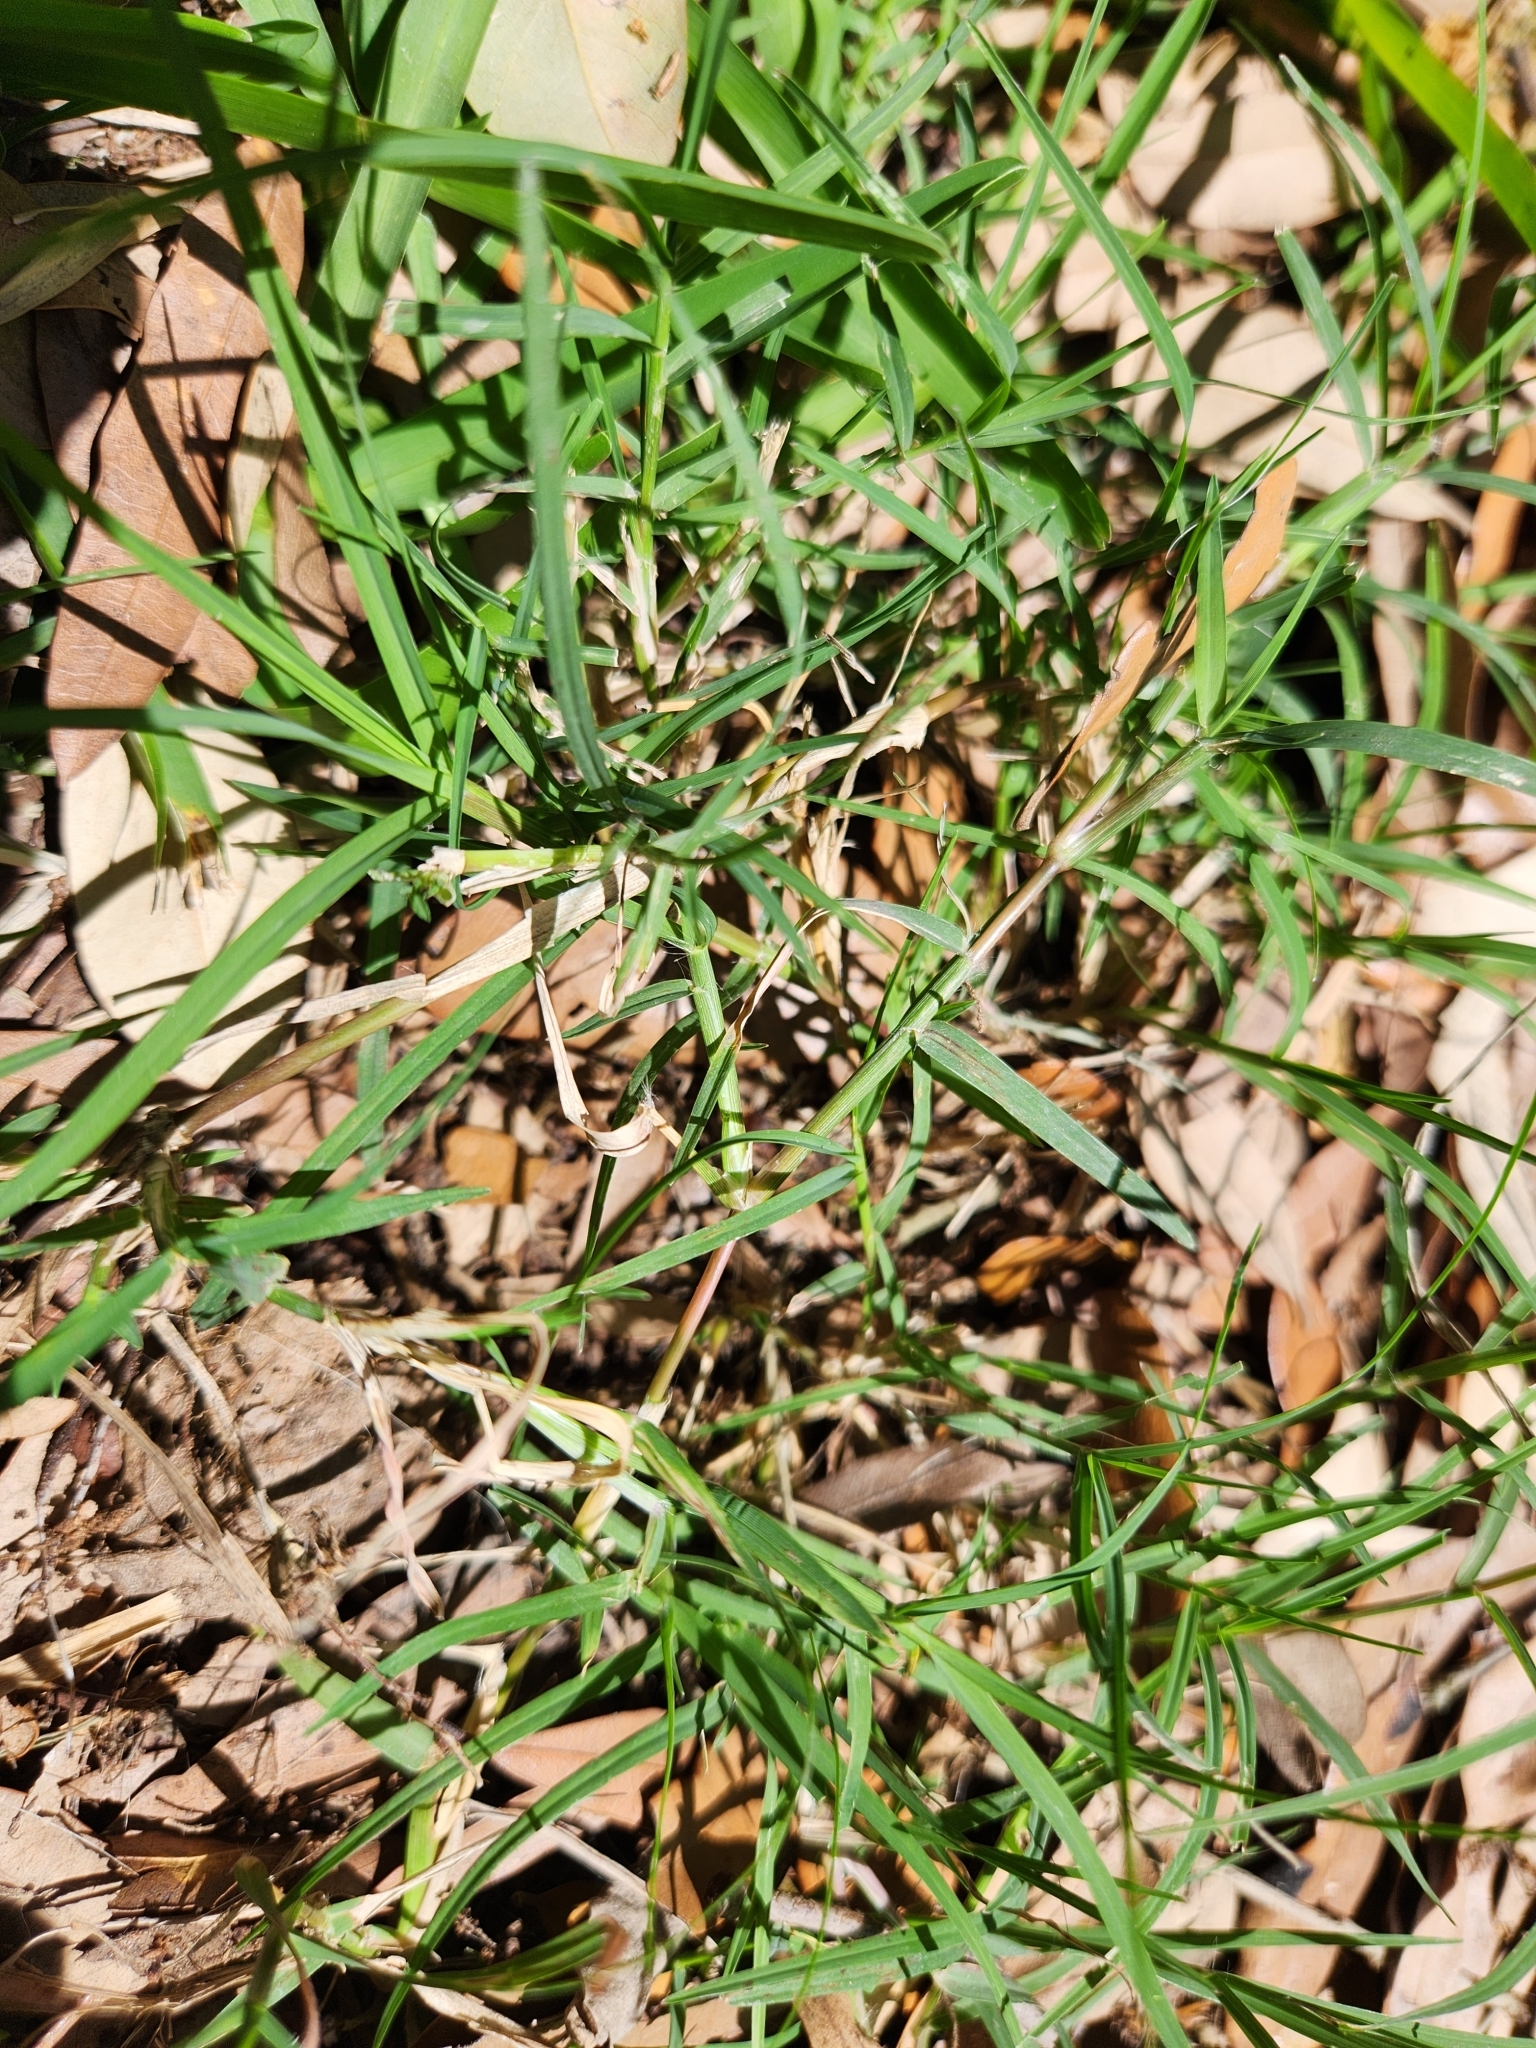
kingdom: Plantae
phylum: Tracheophyta
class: Liliopsida
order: Poales
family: Poaceae
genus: Cynodon
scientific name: Cynodon dactylon
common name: Bermuda grass
